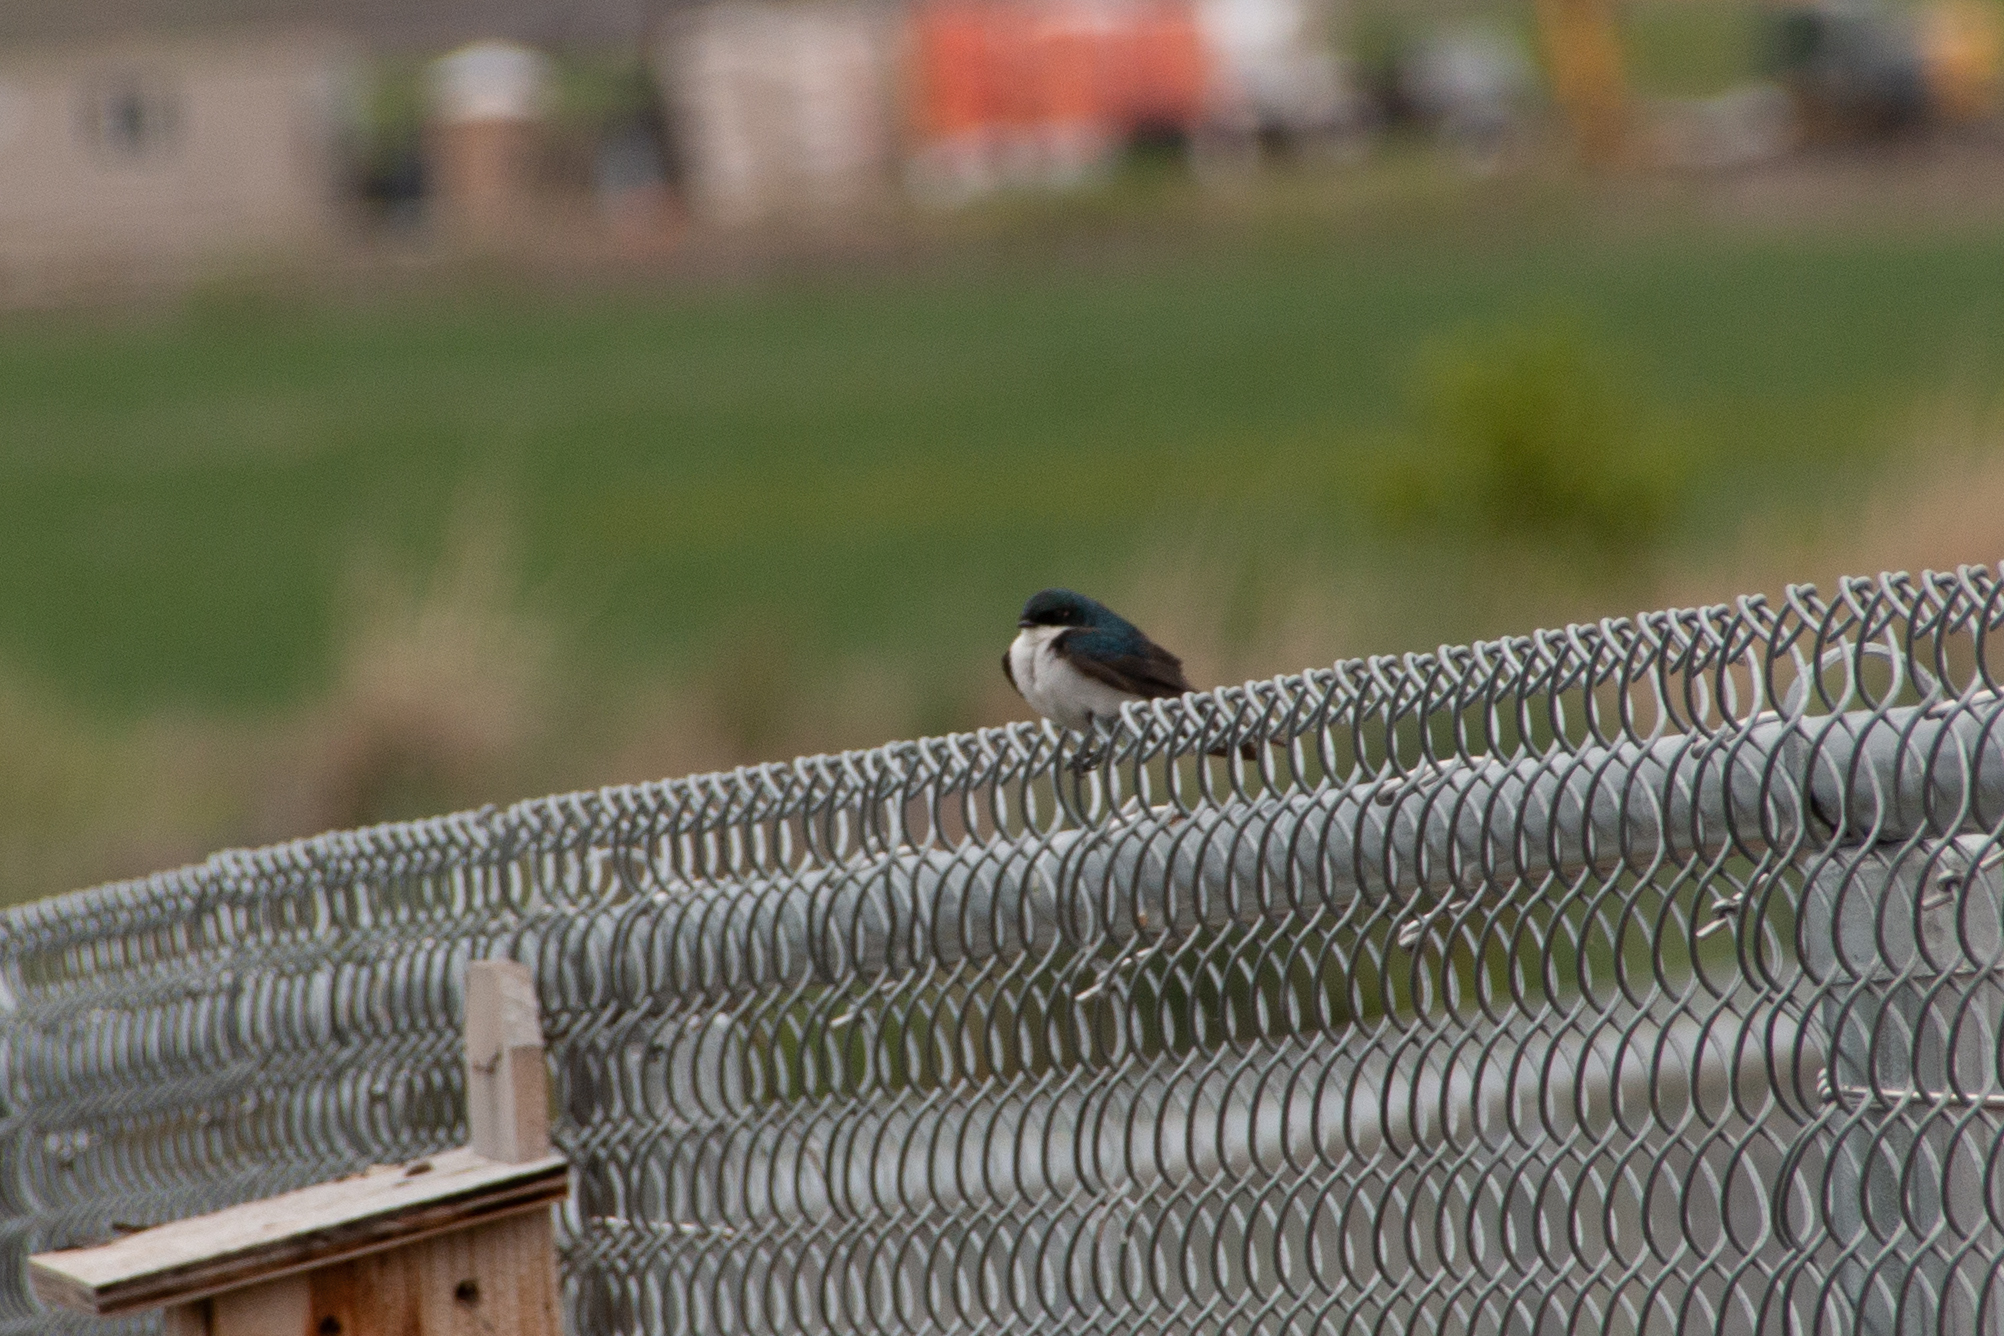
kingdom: Animalia
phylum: Chordata
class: Aves
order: Passeriformes
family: Hirundinidae
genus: Tachycineta
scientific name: Tachycineta bicolor
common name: Tree swallow
